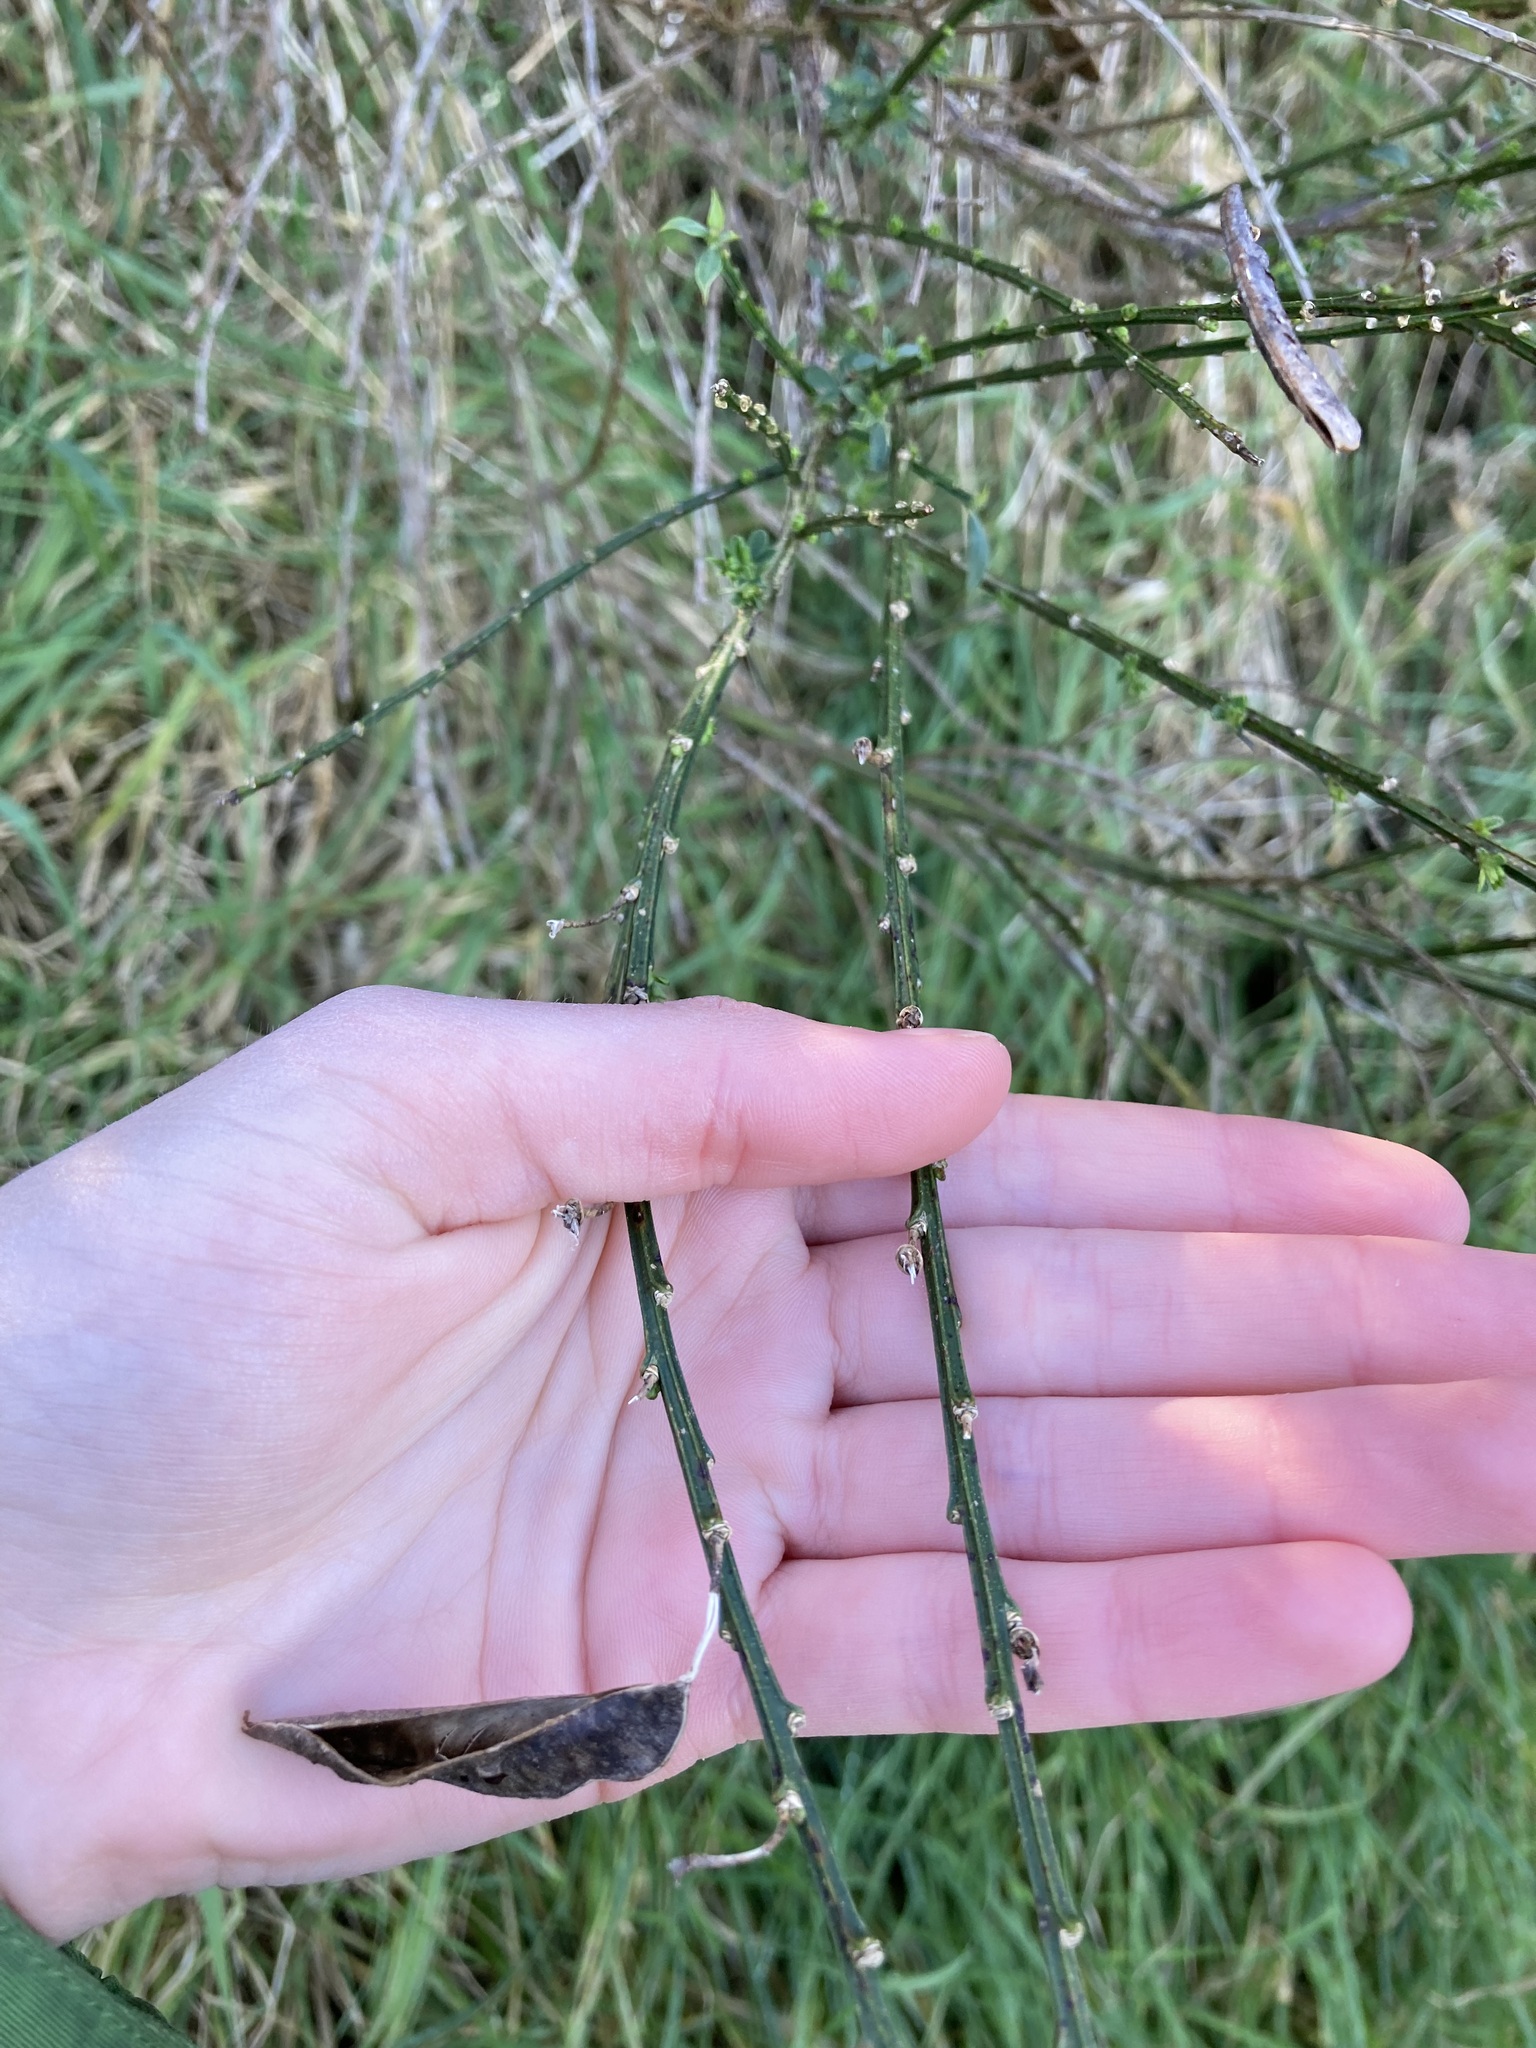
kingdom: Plantae
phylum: Tracheophyta
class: Magnoliopsida
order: Fabales
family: Fabaceae
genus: Cytisus
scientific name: Cytisus scoparius
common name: Scotch broom
